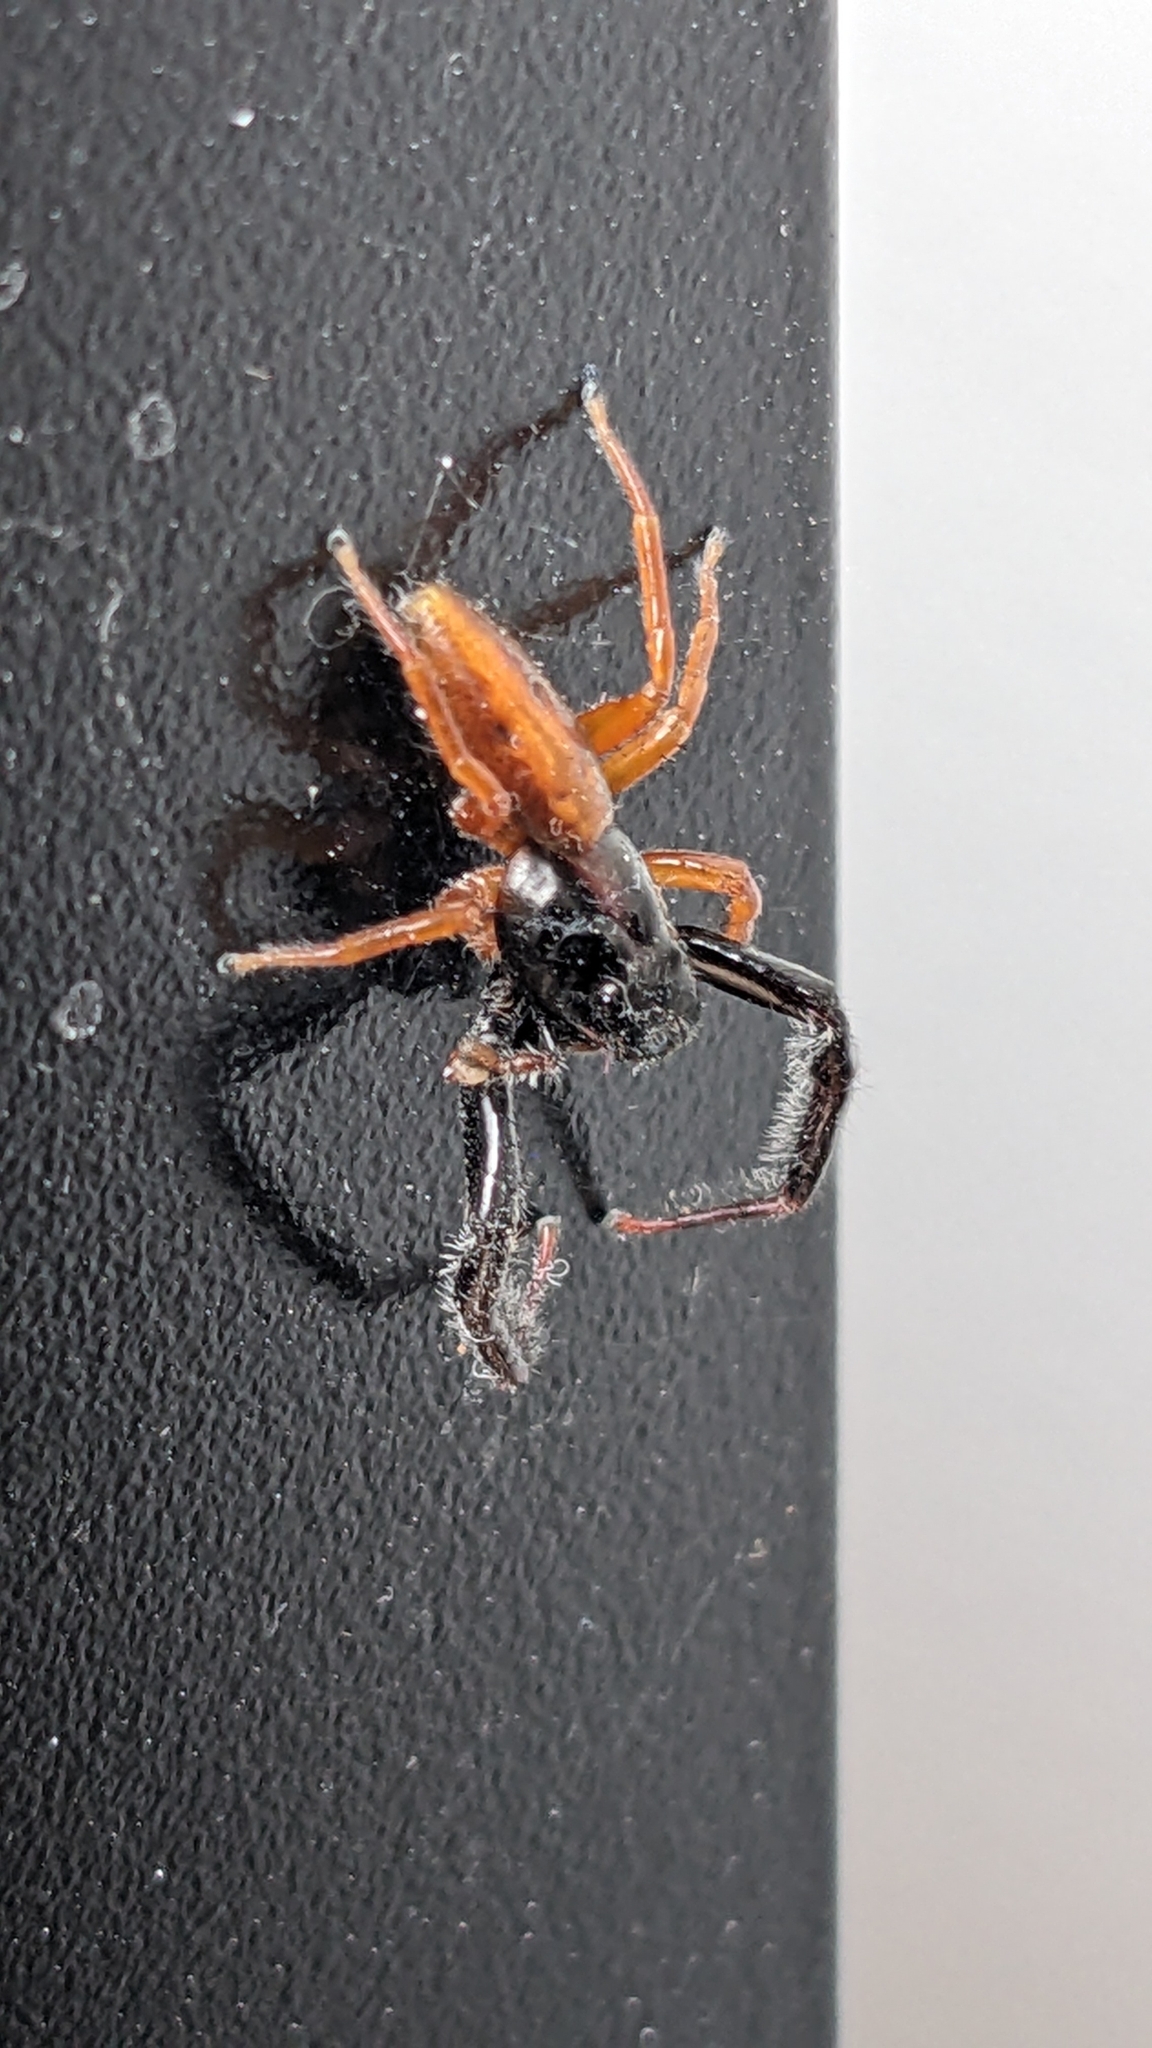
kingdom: Animalia
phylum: Arthropoda
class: Arachnida
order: Araneae
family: Salticidae
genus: Trite
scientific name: Trite planiceps
